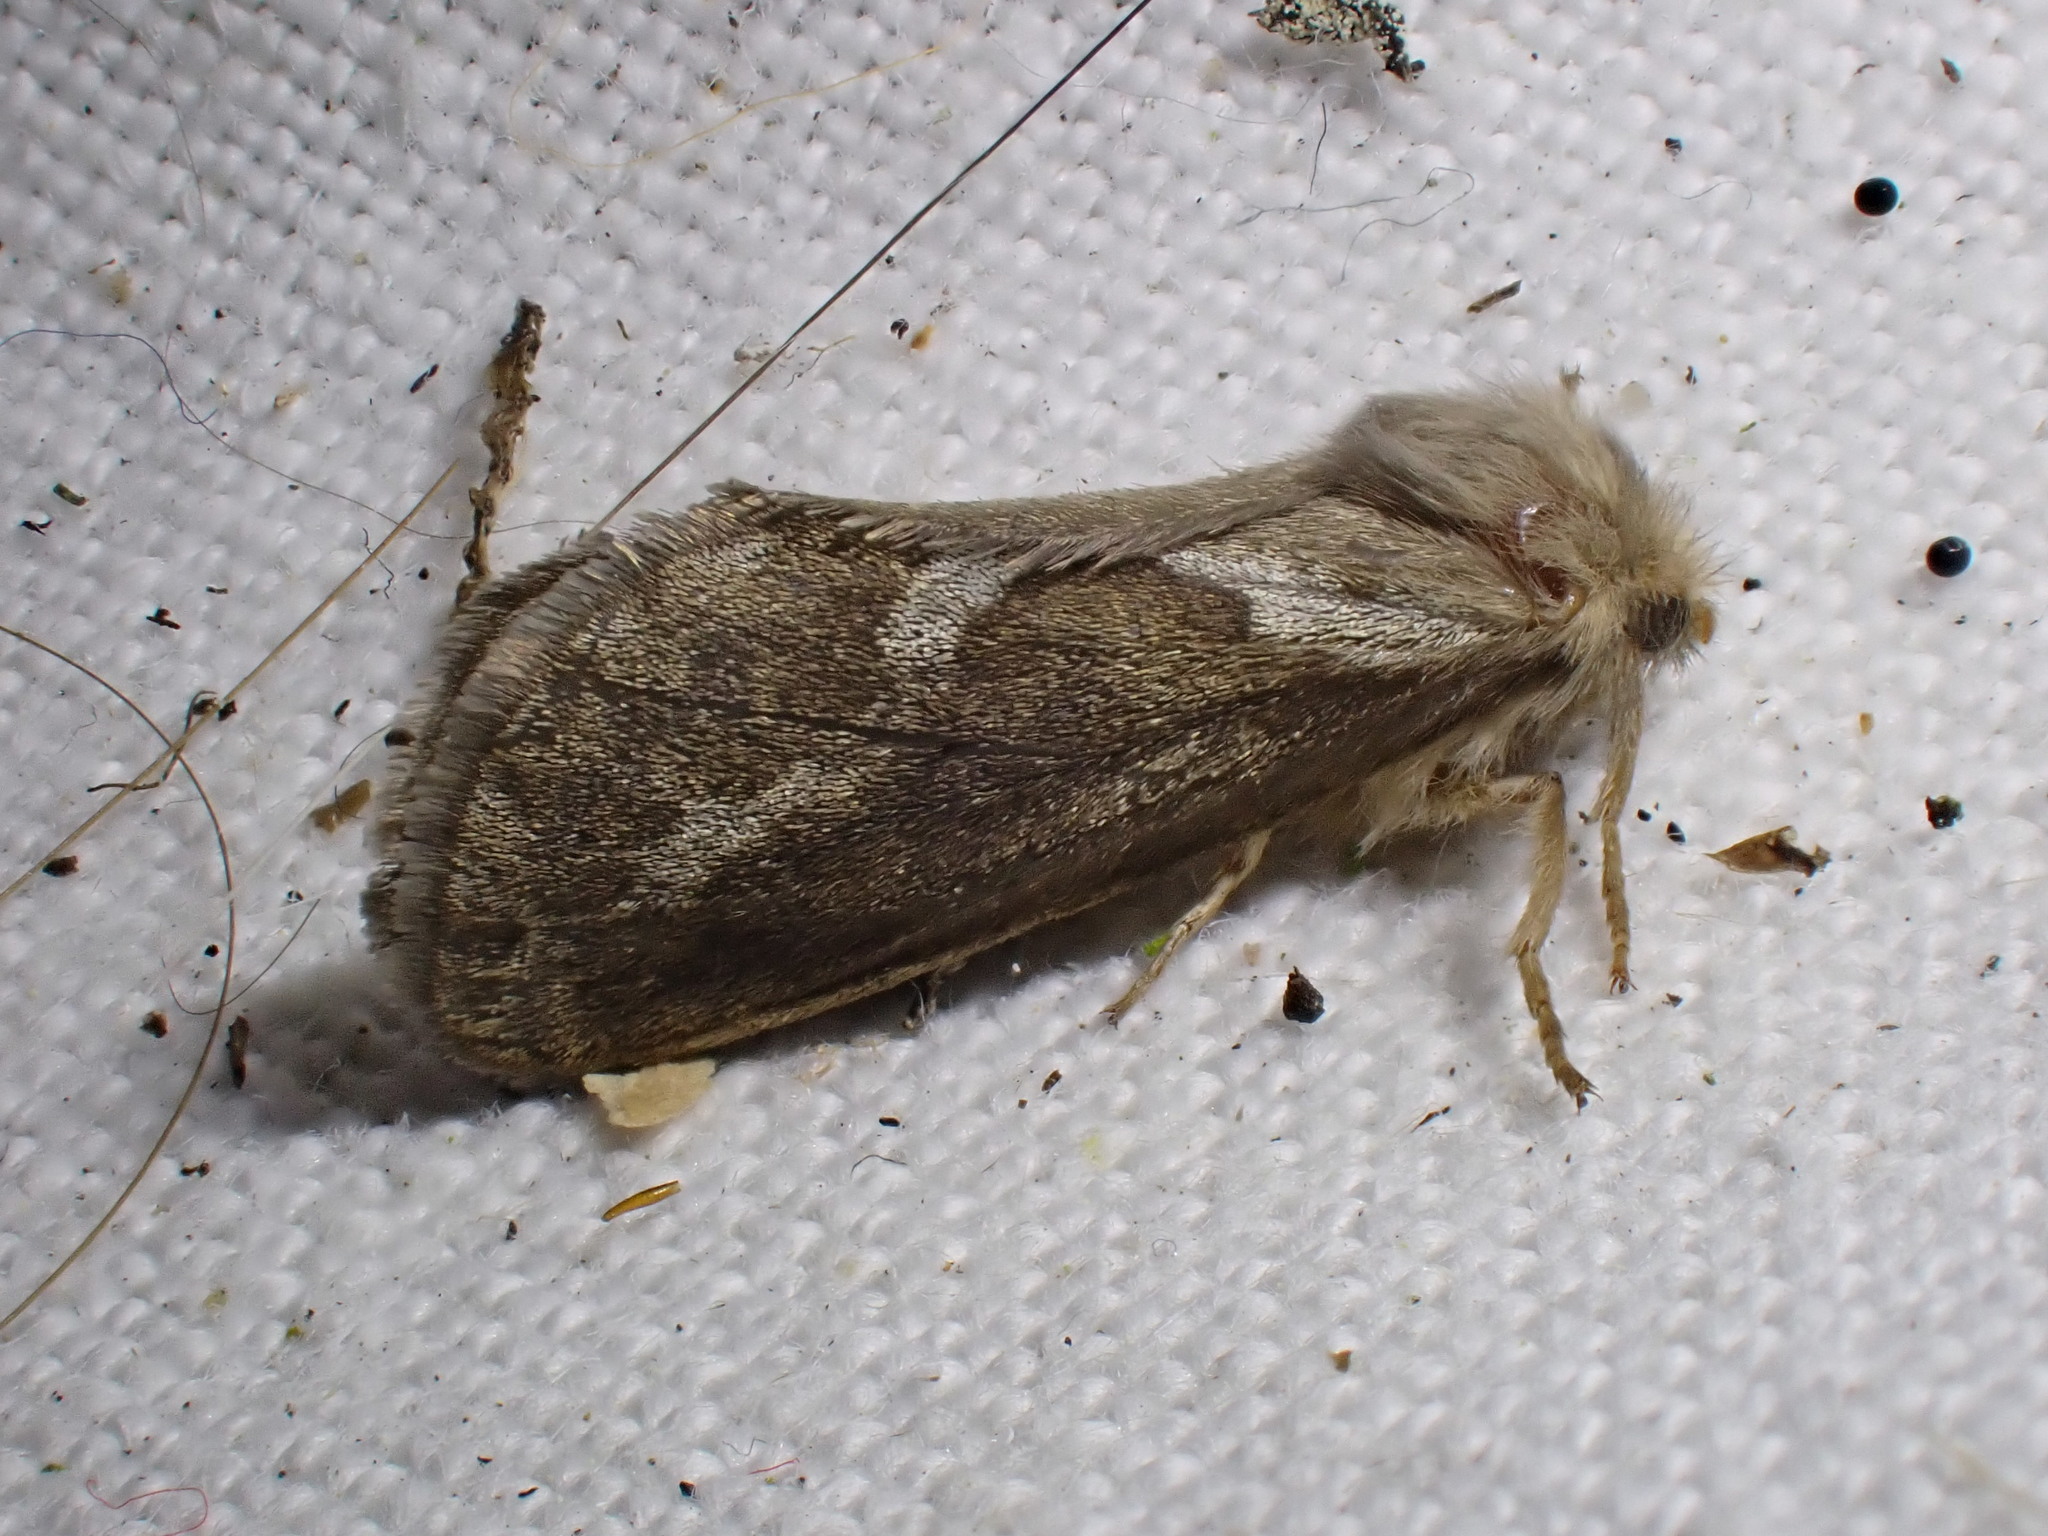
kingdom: Animalia
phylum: Arthropoda
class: Insecta
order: Lepidoptera
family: Hepialidae
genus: Korscheltellus
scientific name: Korscheltellus lupulina
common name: Common swift
